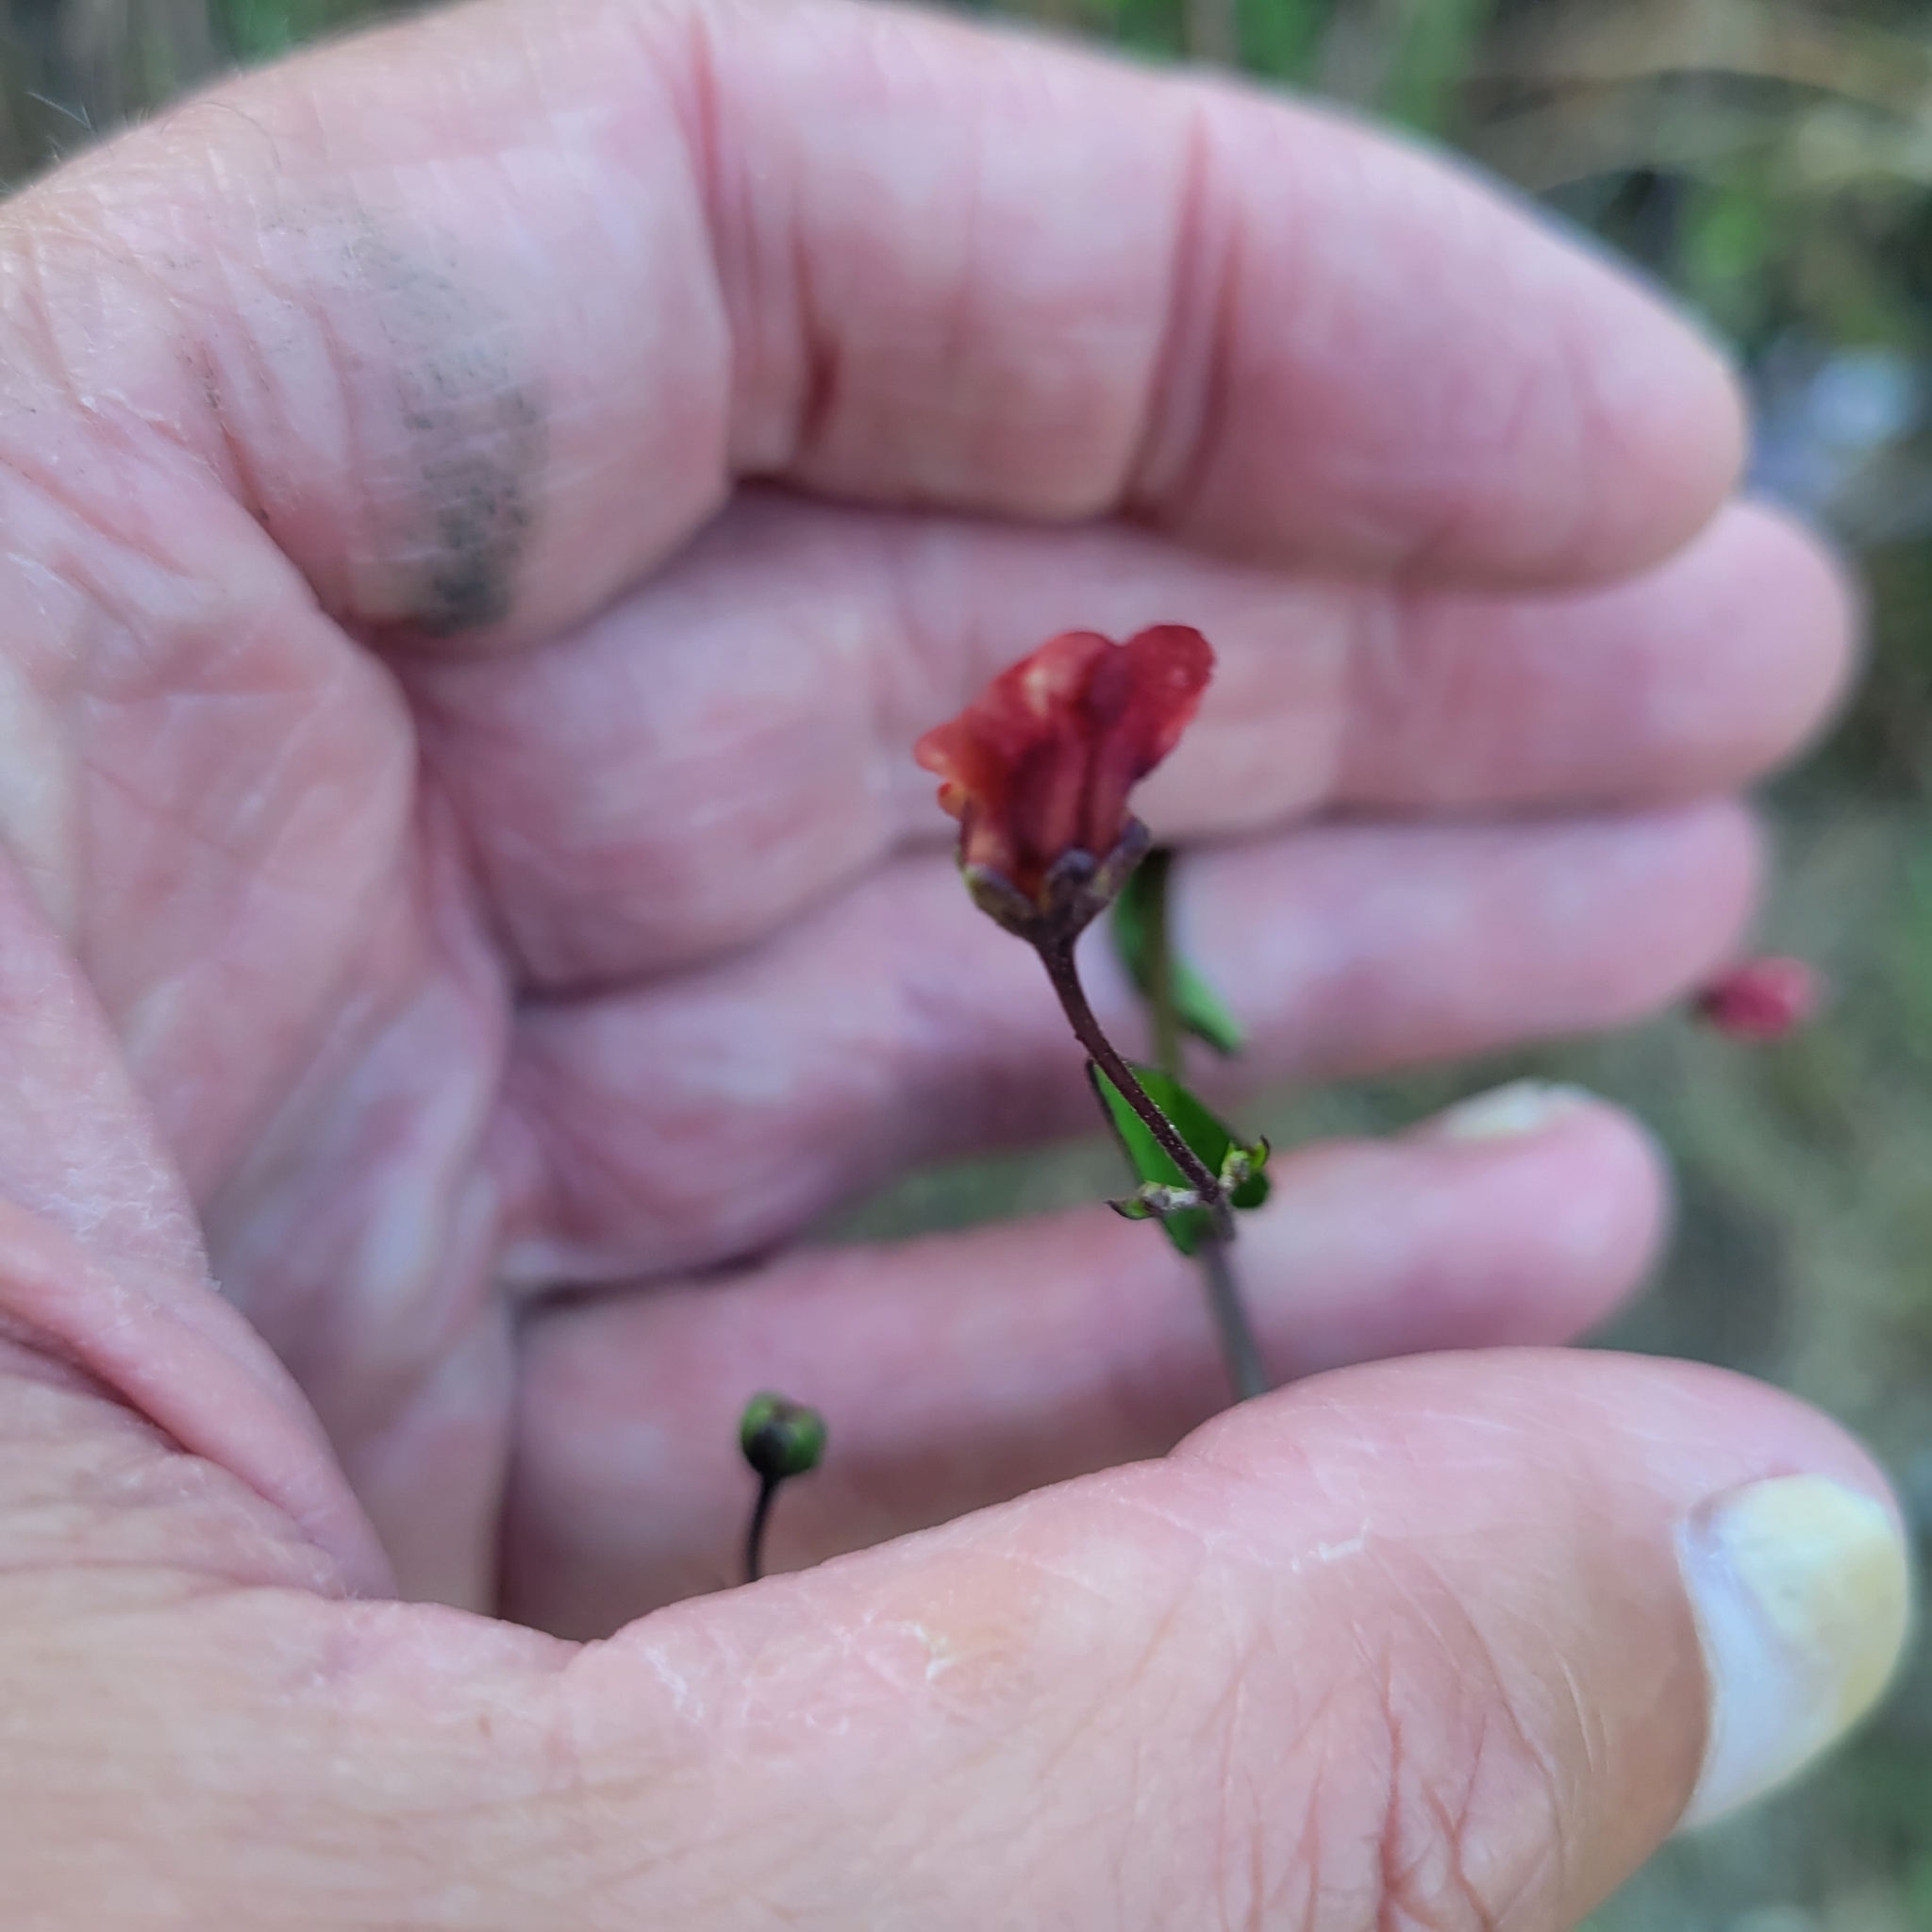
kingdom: Plantae
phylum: Tracheophyta
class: Magnoliopsida
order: Lamiales
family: Scrophulariaceae
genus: Scrophularia
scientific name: Scrophularia californica
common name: California figwort
